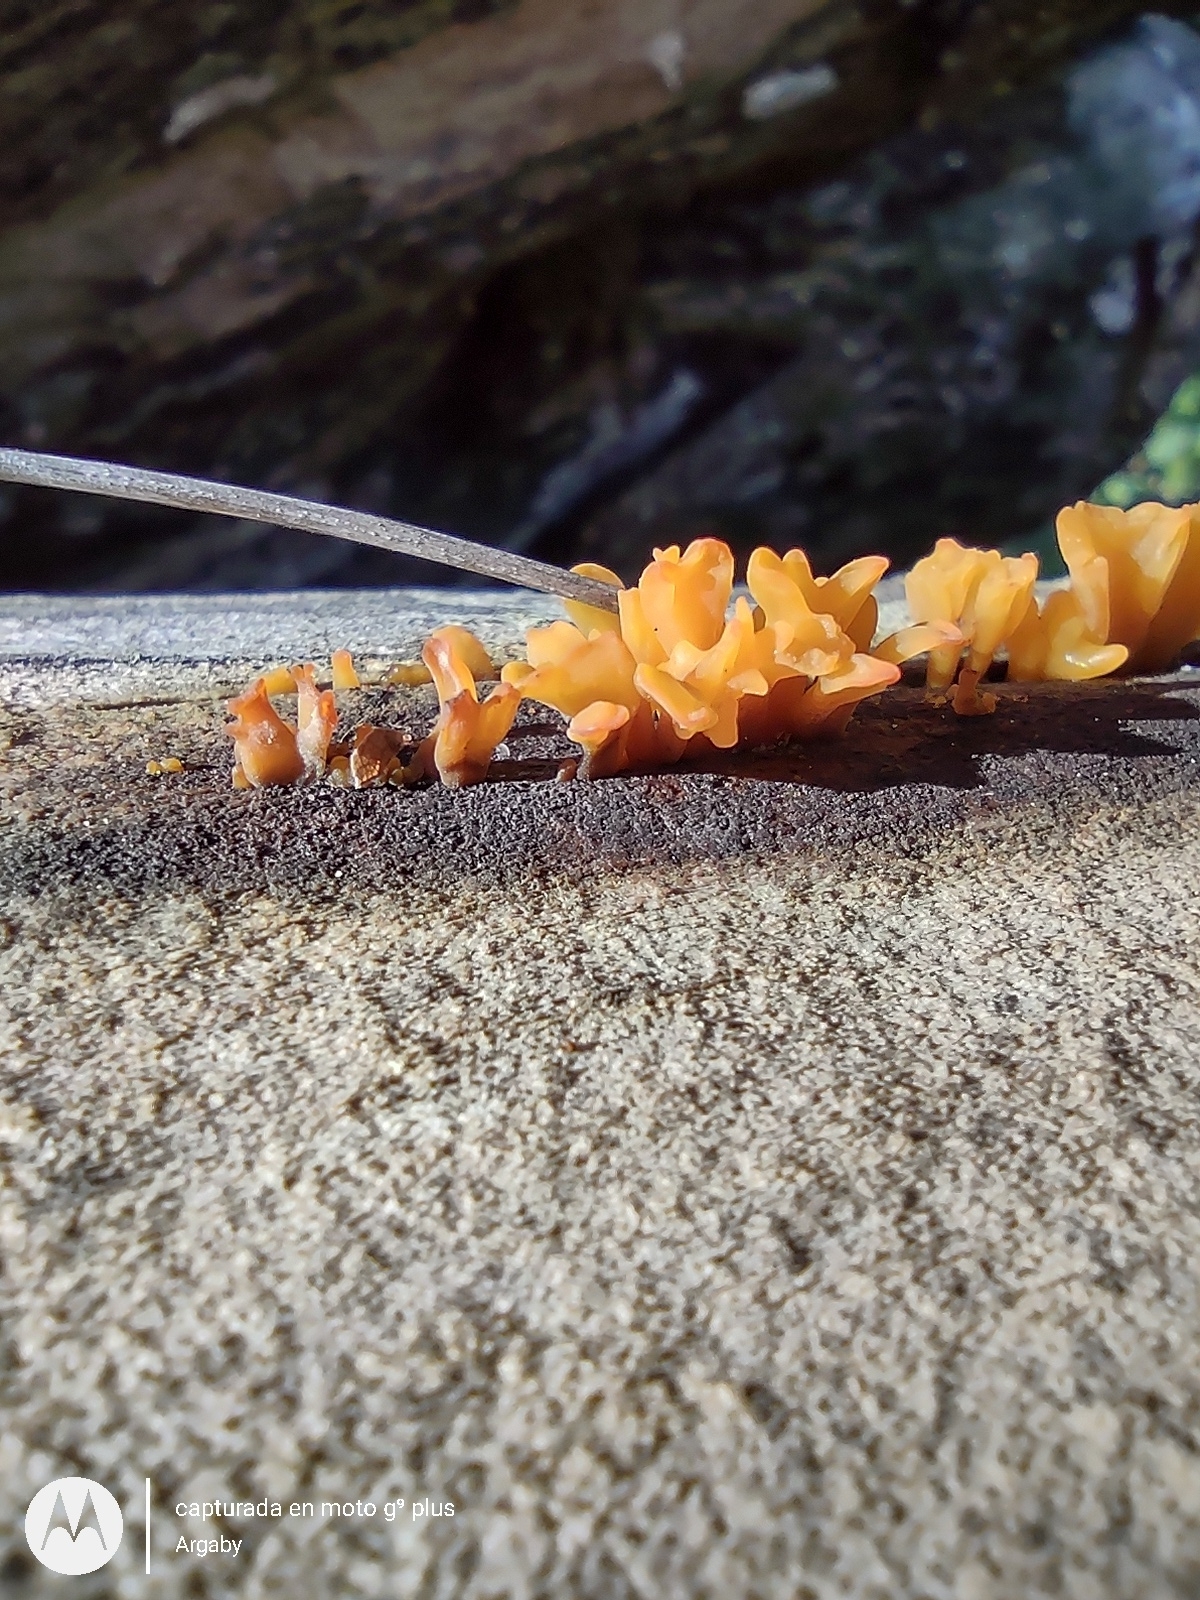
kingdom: Fungi
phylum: Basidiomycota
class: Dacrymycetes
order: Dacrymycetales
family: Dacrymycetaceae
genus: Dacrymyces
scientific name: Dacrymyces spathularius
